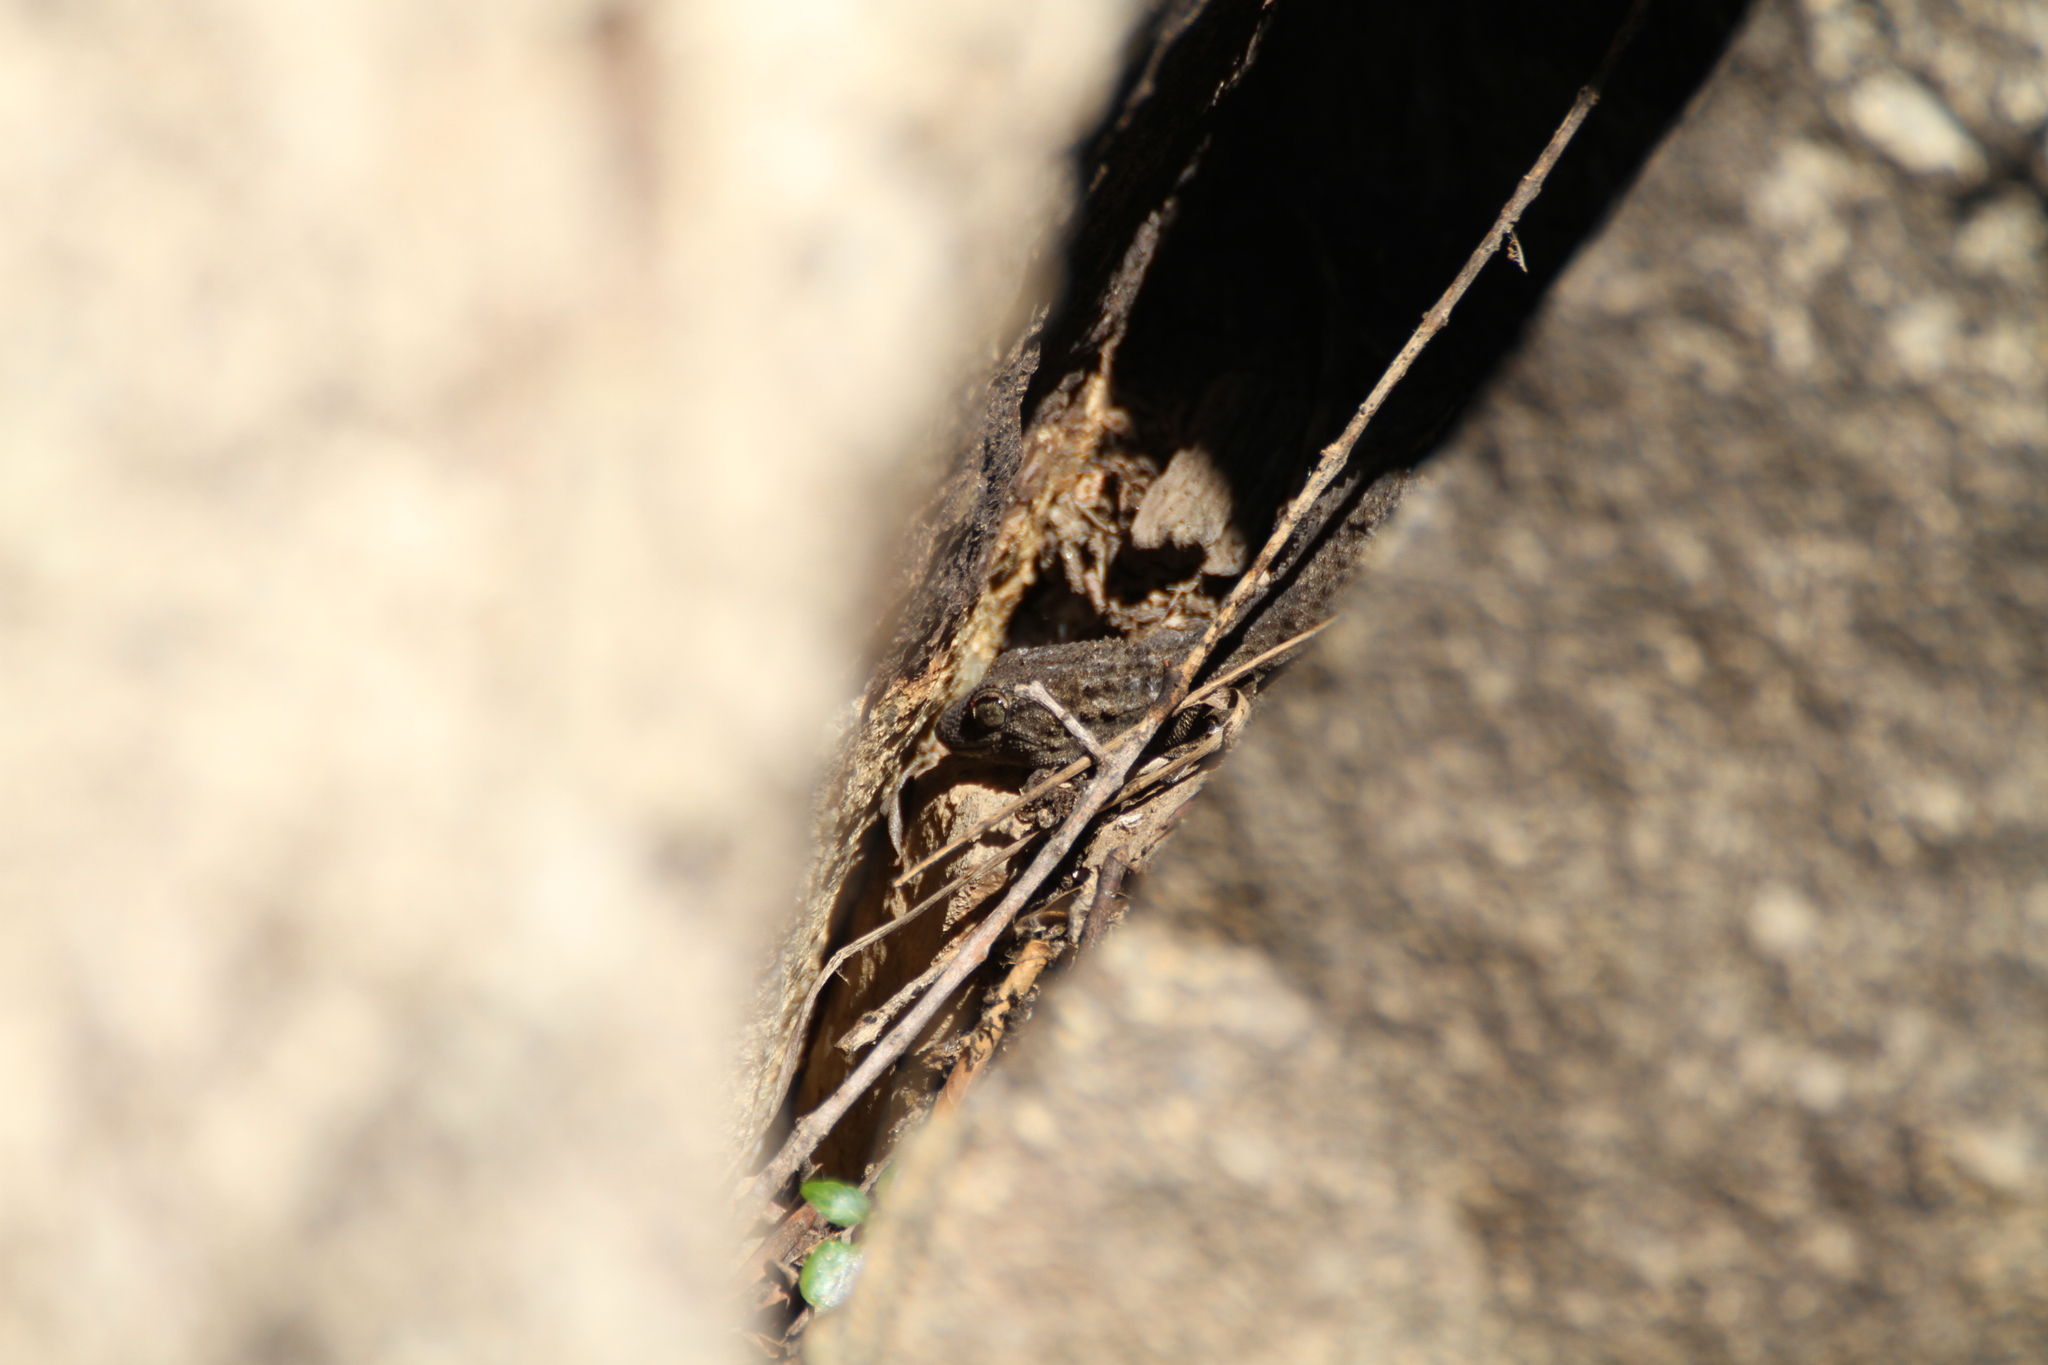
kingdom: Animalia
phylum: Chordata
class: Squamata
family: Phyllodactylidae
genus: Tarentola
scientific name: Tarentola mauritanica
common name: Moorish gecko
